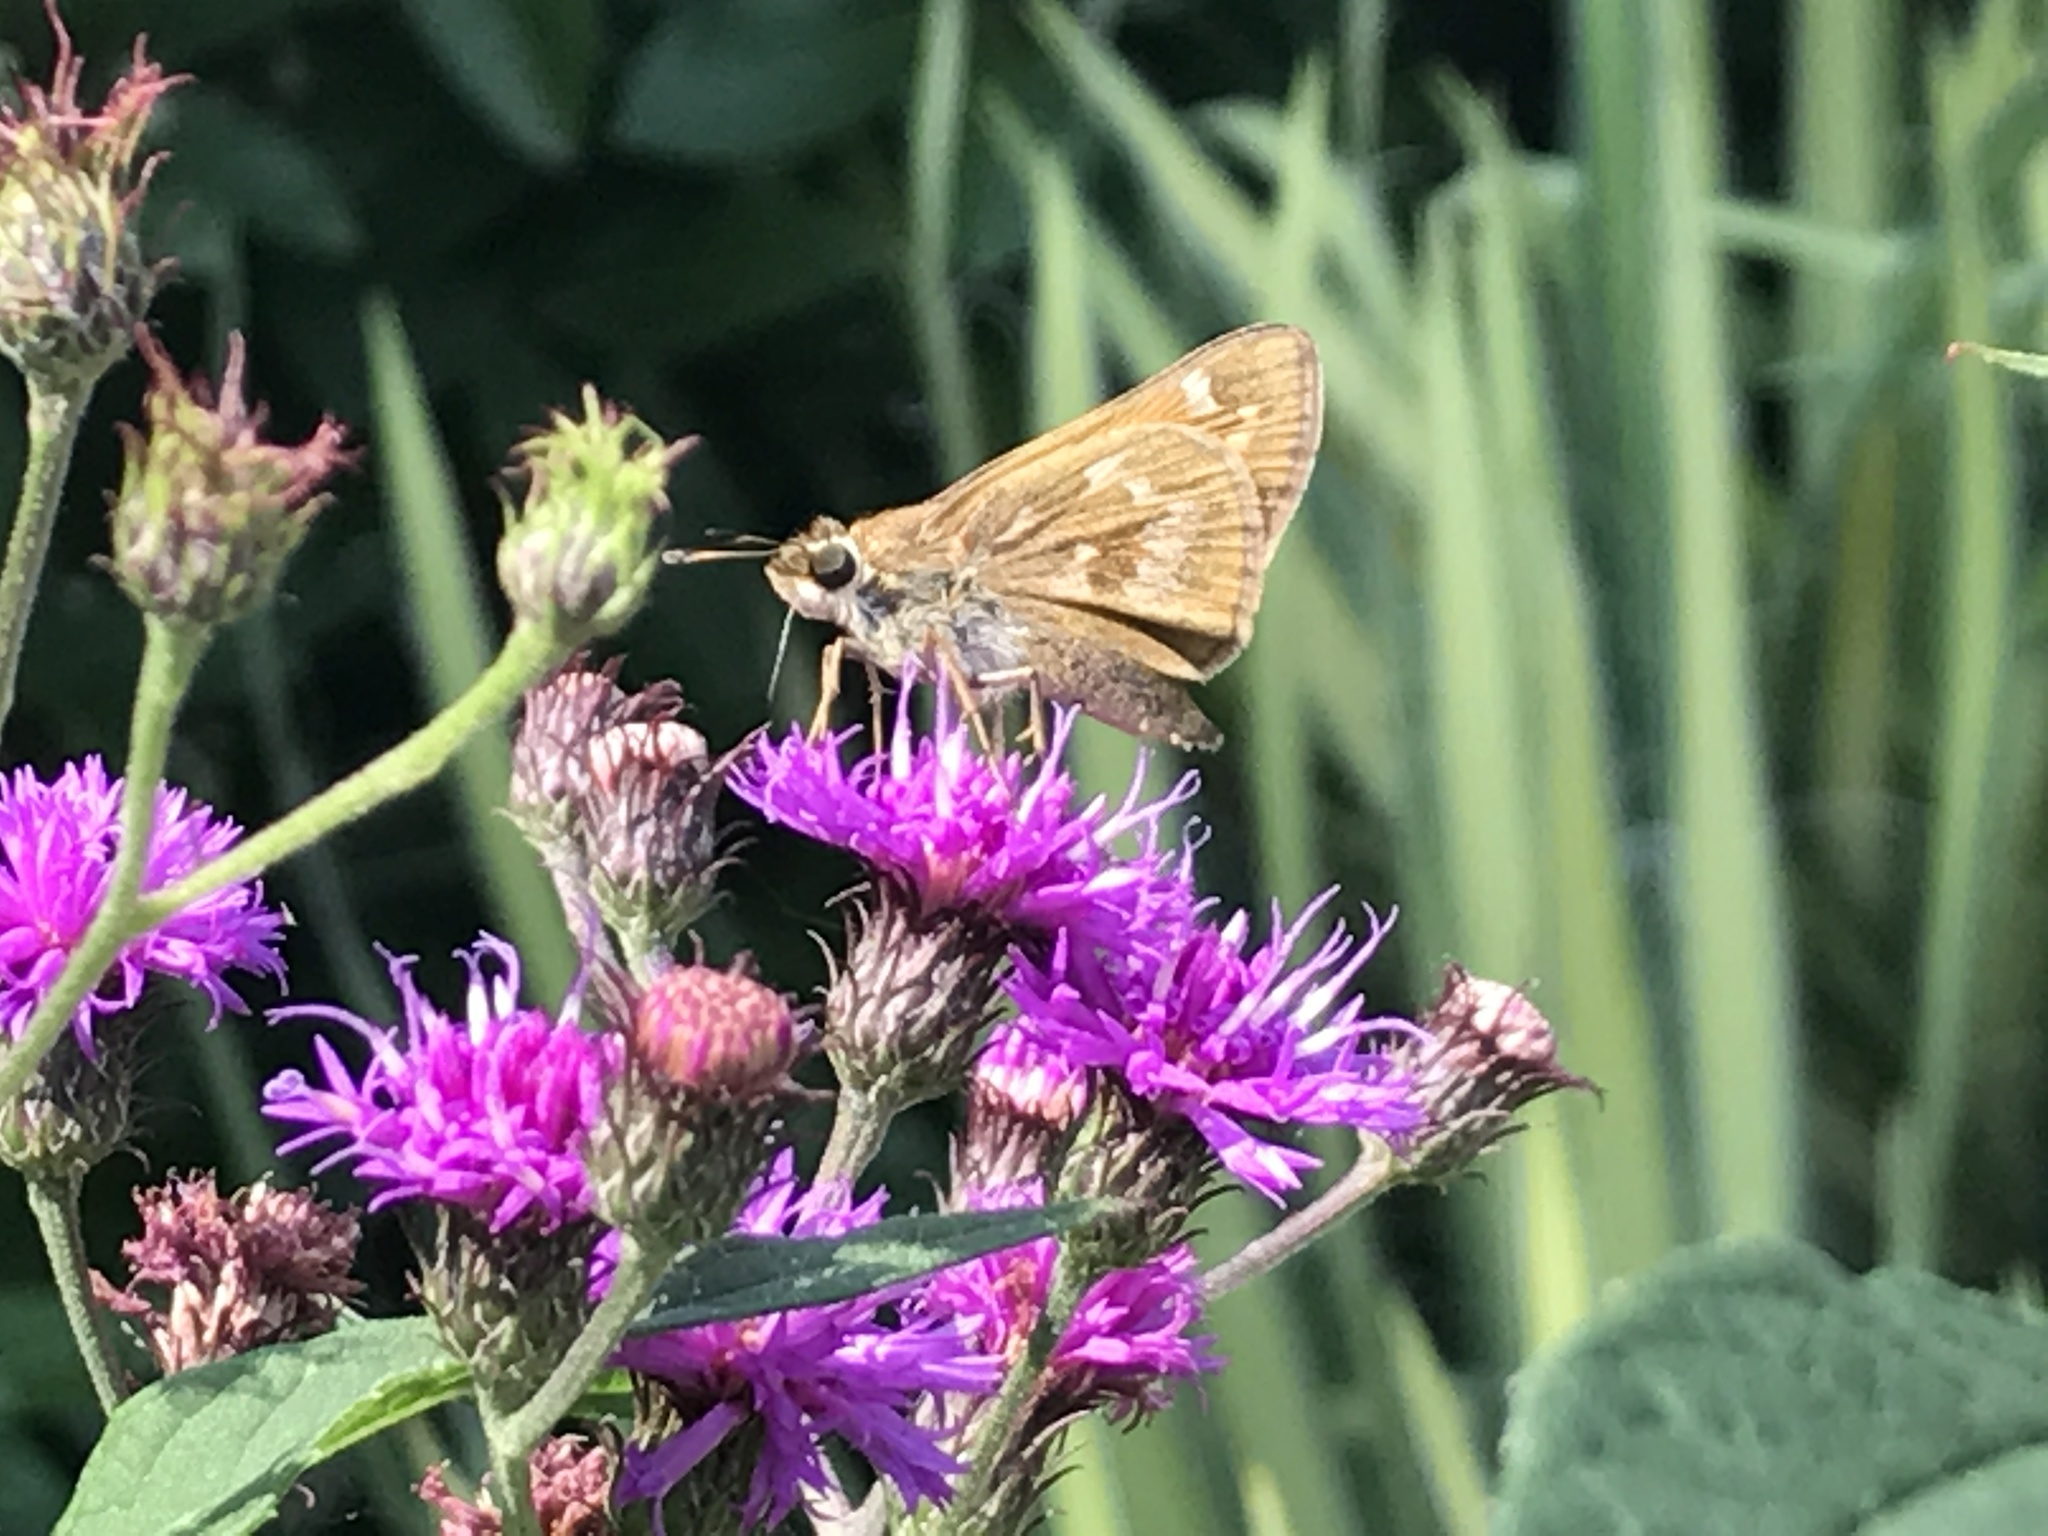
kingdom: Animalia
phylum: Arthropoda
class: Insecta
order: Lepidoptera
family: Hesperiidae
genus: Atalopedes
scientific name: Atalopedes
